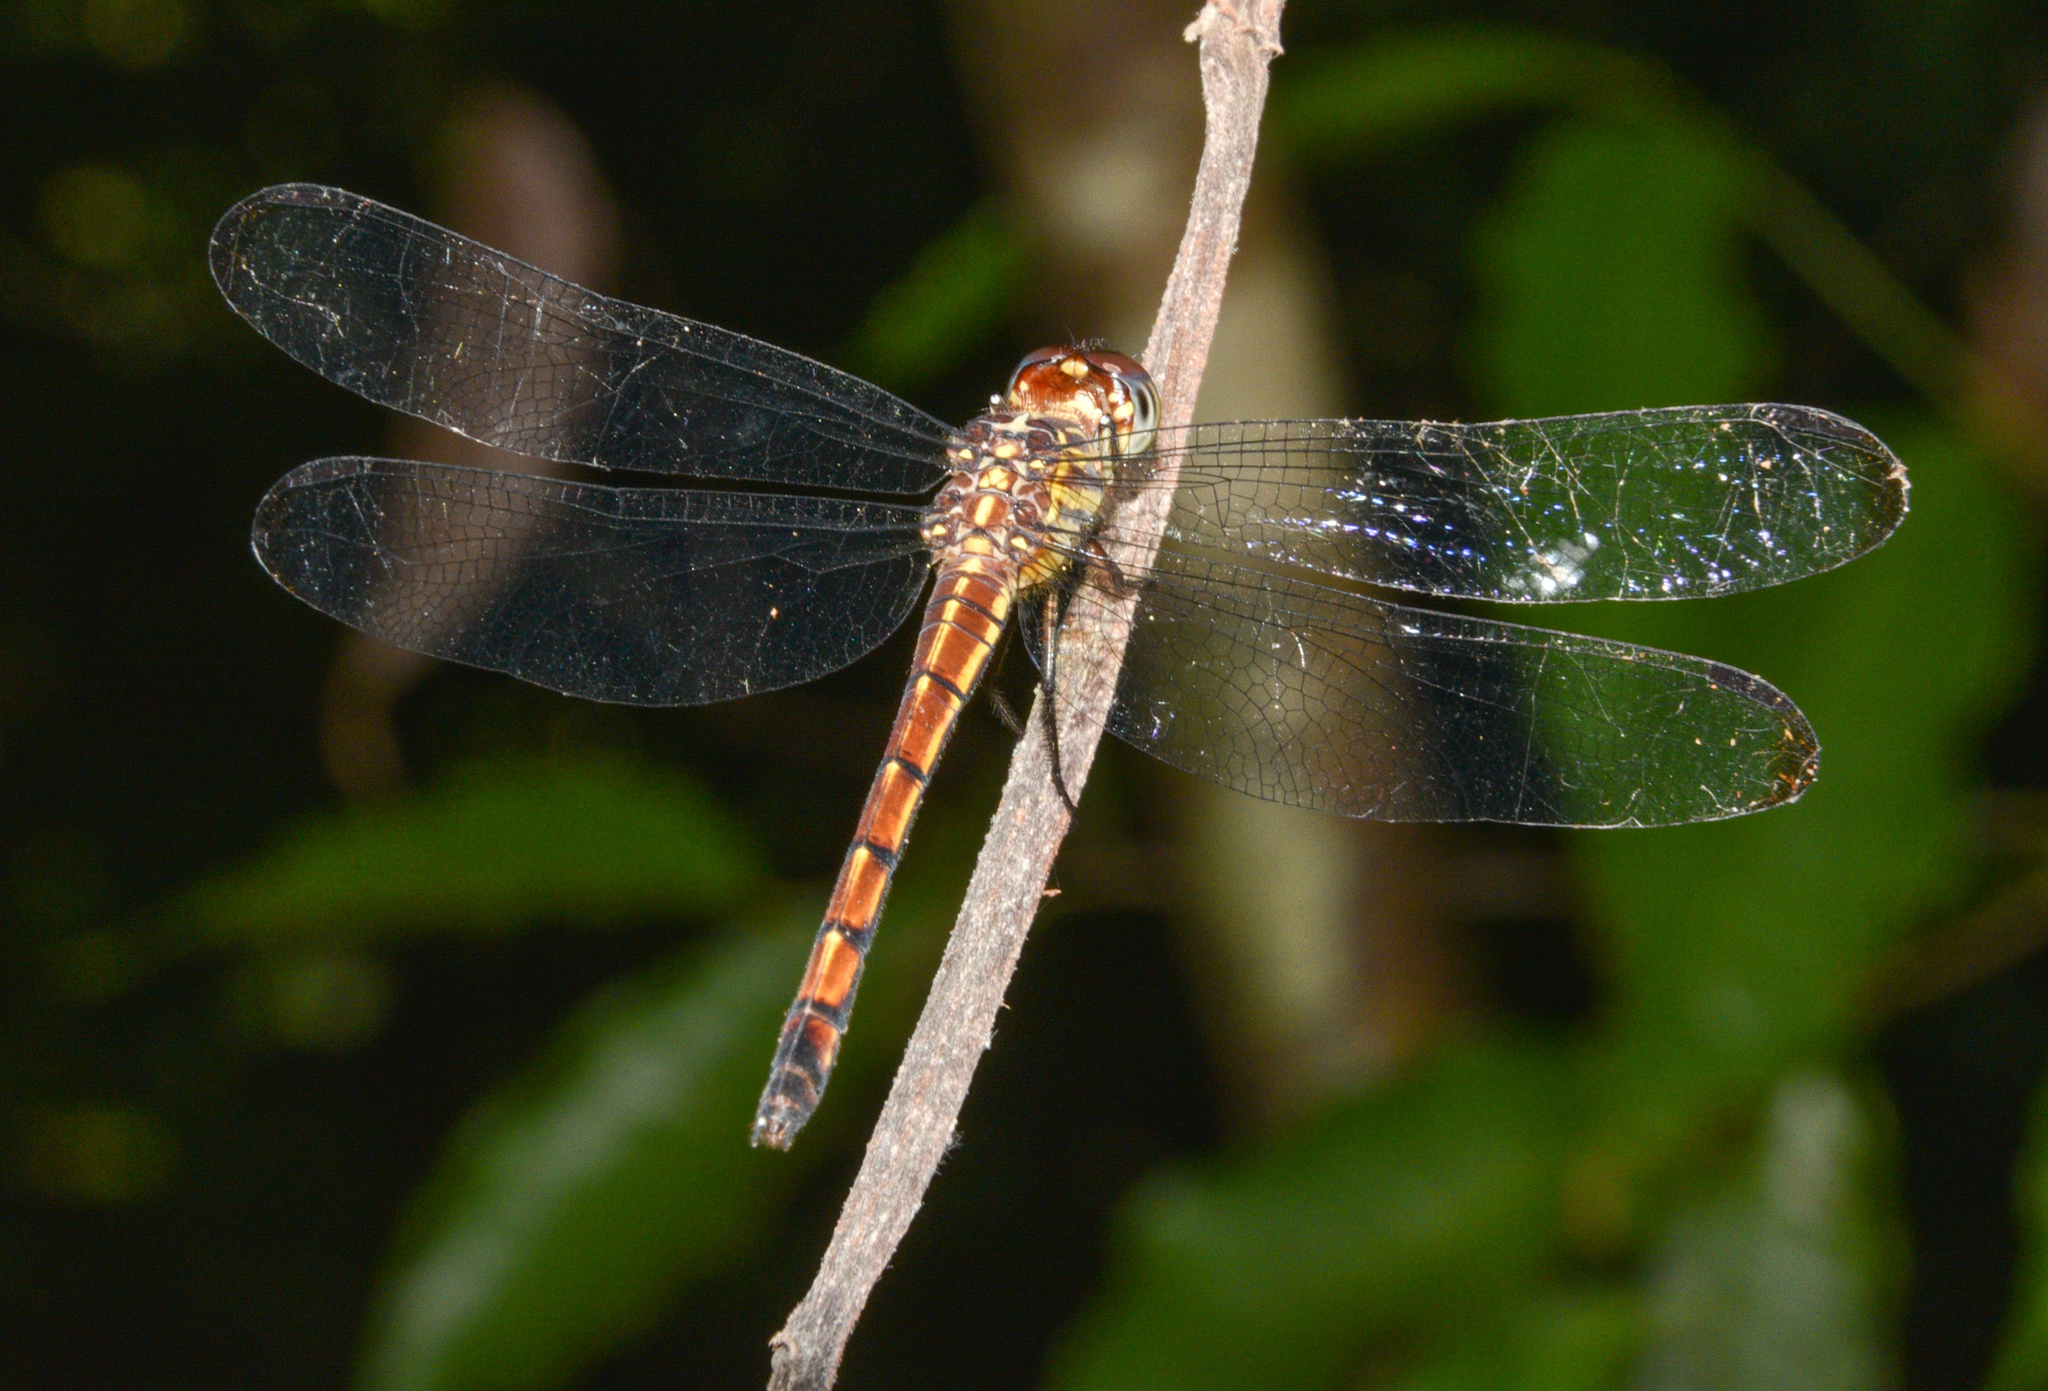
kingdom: Animalia
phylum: Arthropoda
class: Insecta
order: Odonata
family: Libellulidae
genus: Cannaphila
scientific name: Cannaphila insularis
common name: Gray-waisted skimmer
